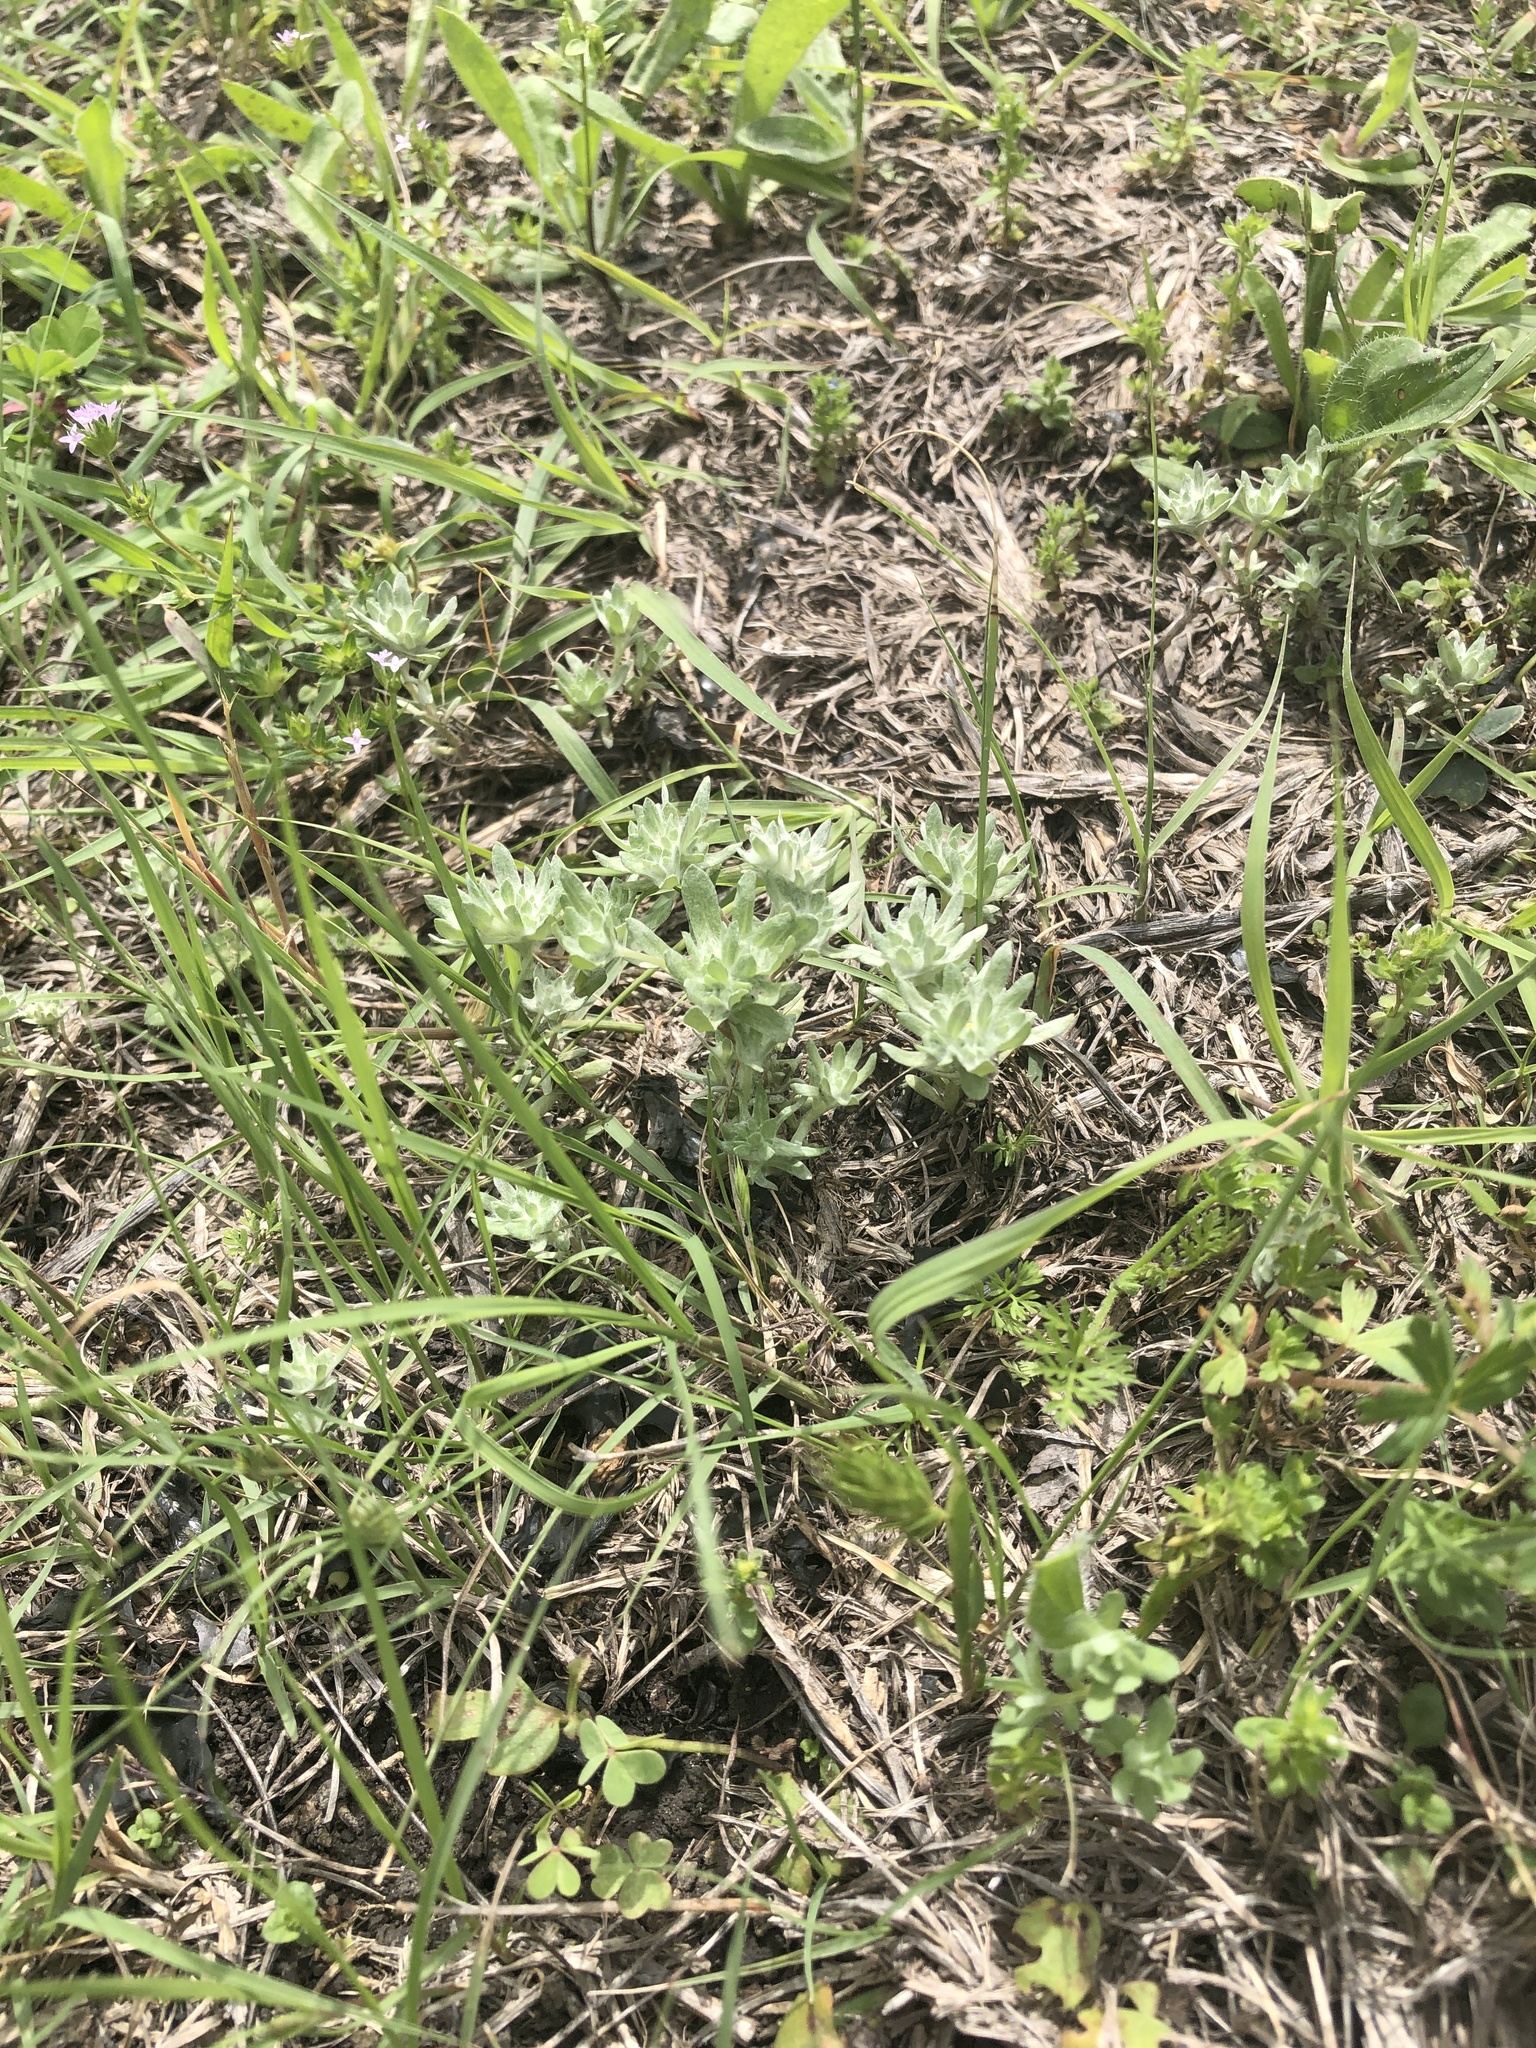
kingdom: Plantae
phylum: Tracheophyta
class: Magnoliopsida
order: Asterales
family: Asteraceae
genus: Diaperia
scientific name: Diaperia prolifera
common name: Big-head rabbit-tobacco
